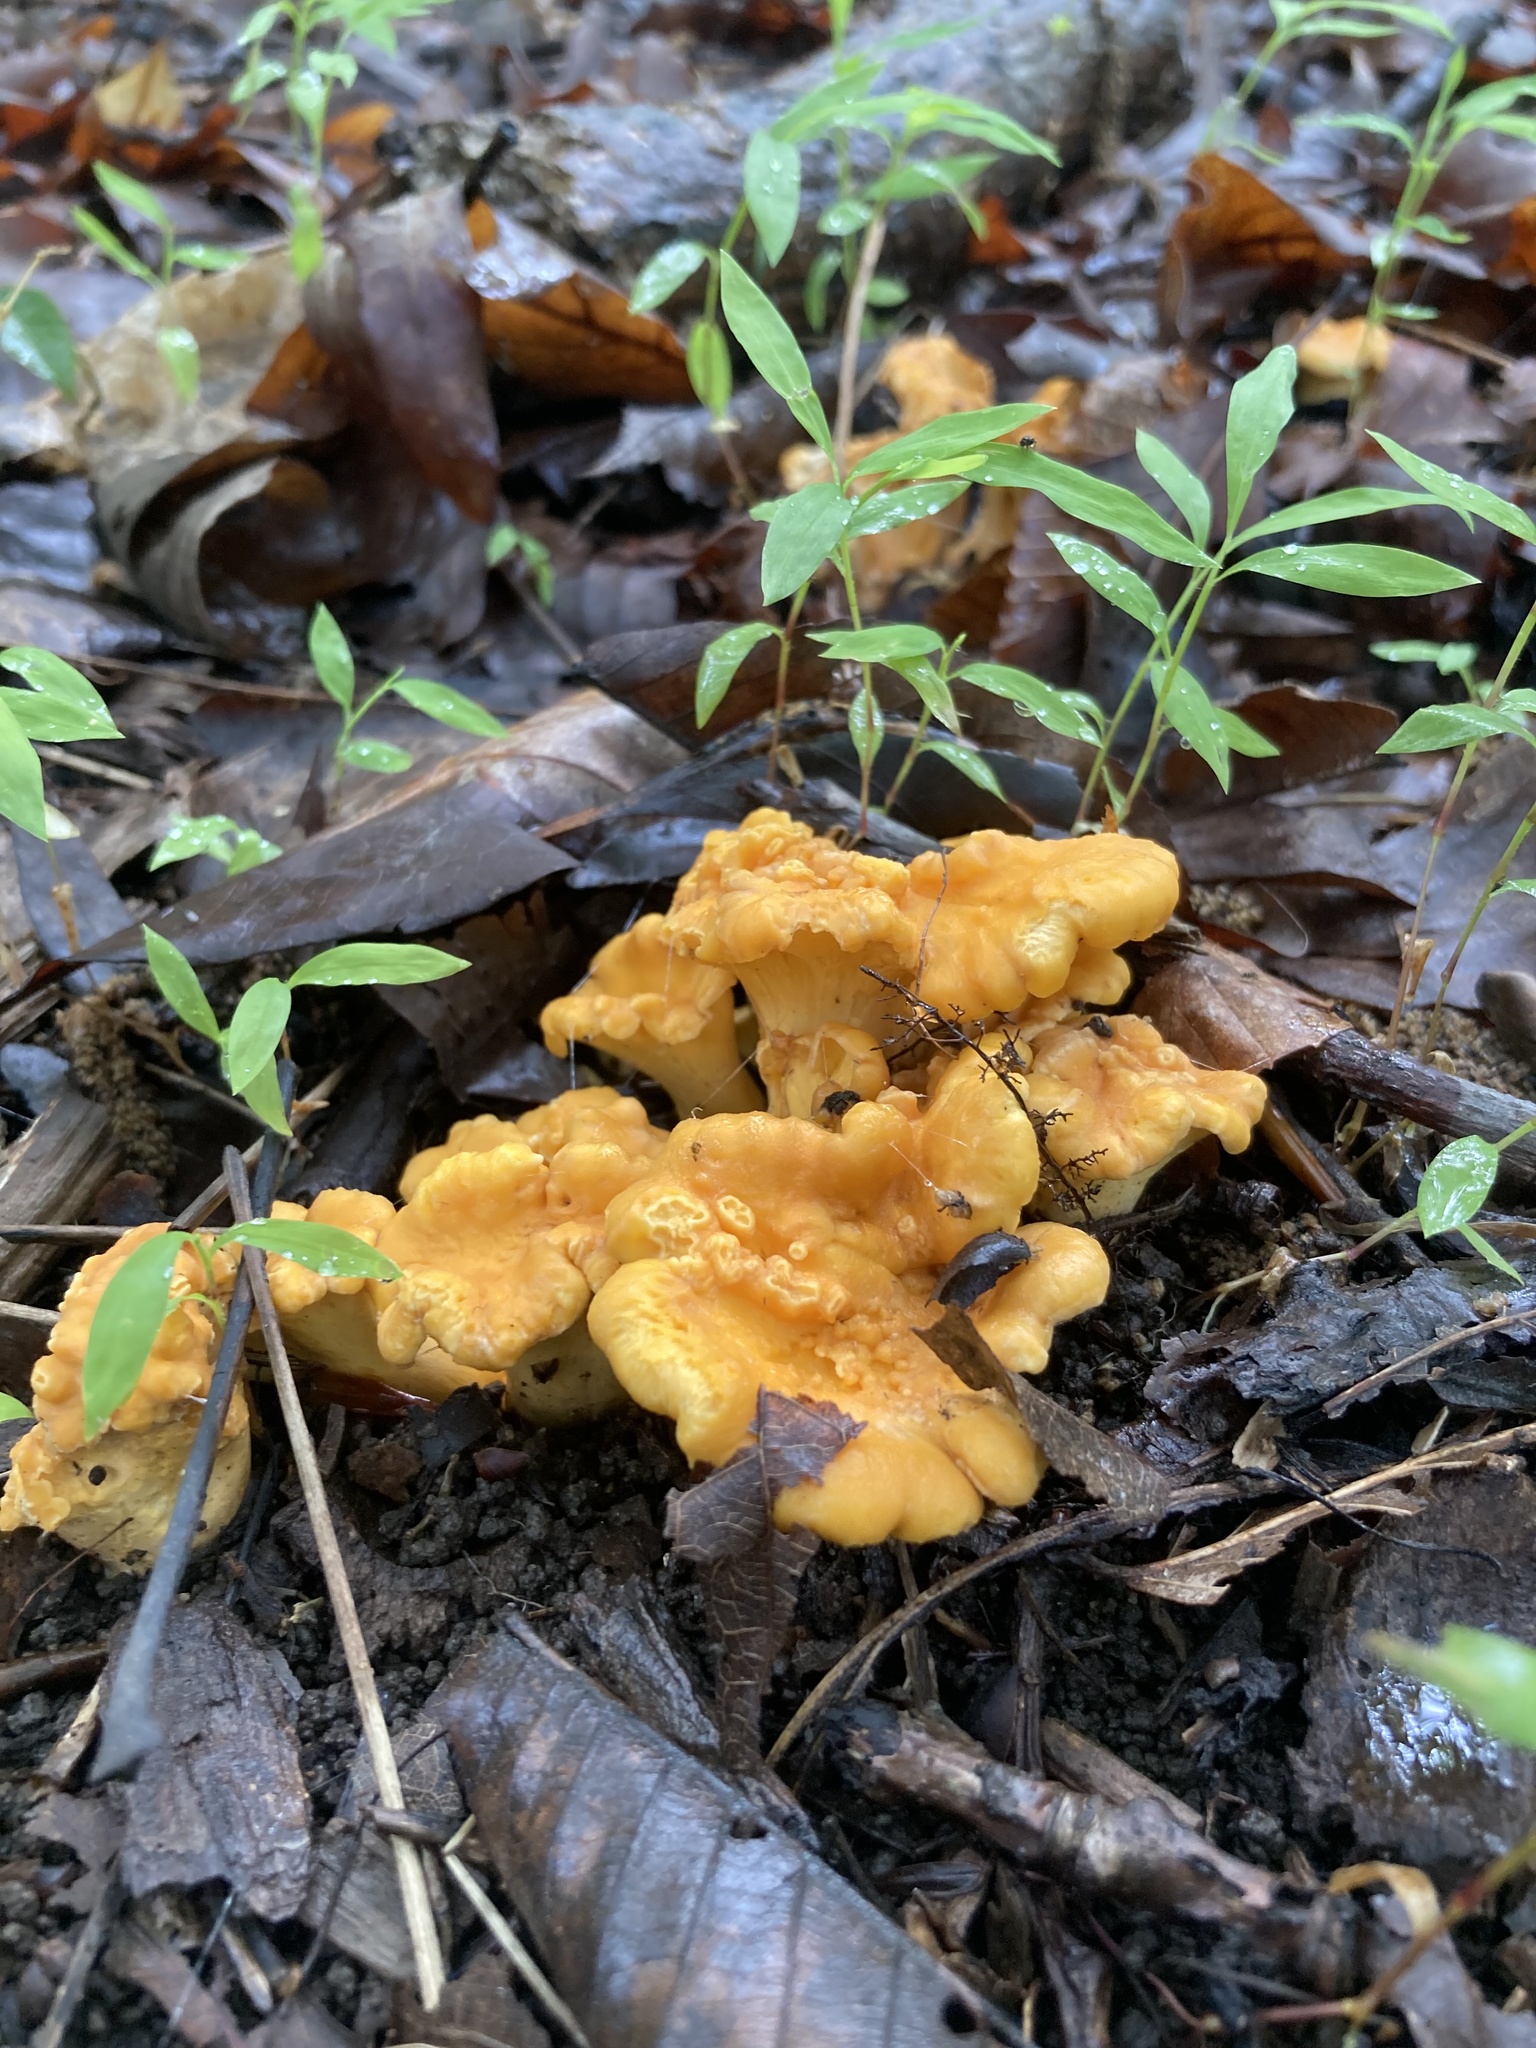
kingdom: Fungi
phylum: Basidiomycota
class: Agaricomycetes
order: Cantharellales
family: Hydnaceae
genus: Cantharellus
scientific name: Cantharellus lateritius
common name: Smooth chanterelle
